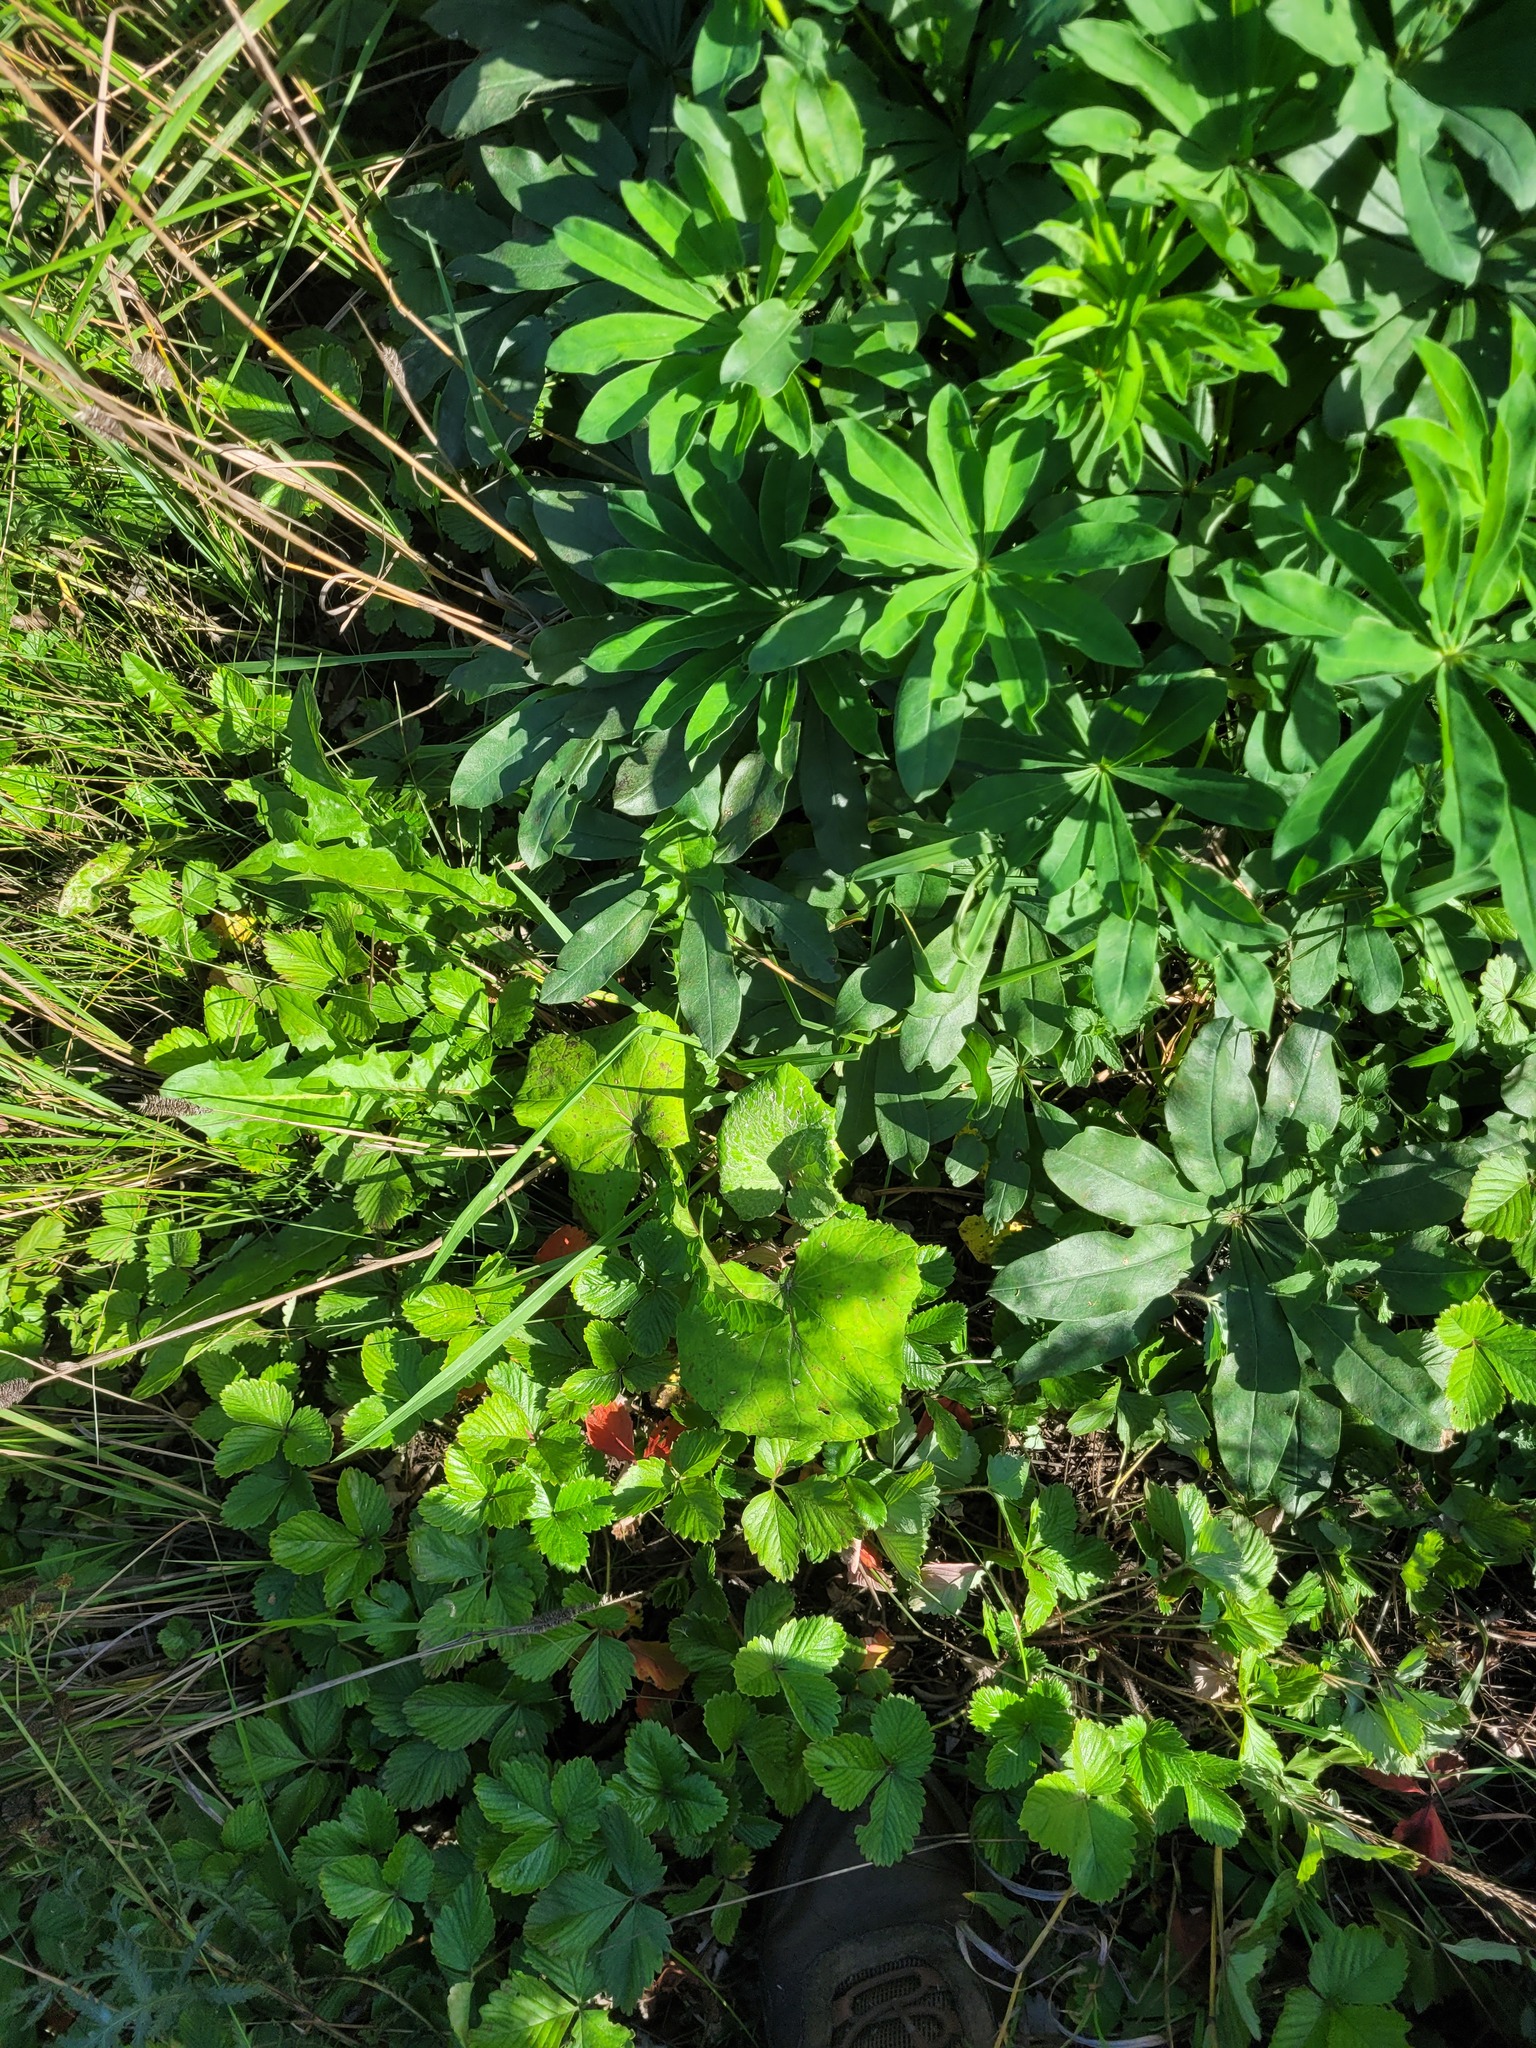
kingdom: Plantae
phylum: Tracheophyta
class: Magnoliopsida
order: Asterales
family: Asteraceae
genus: Tussilago
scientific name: Tussilago farfara
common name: Coltsfoot
